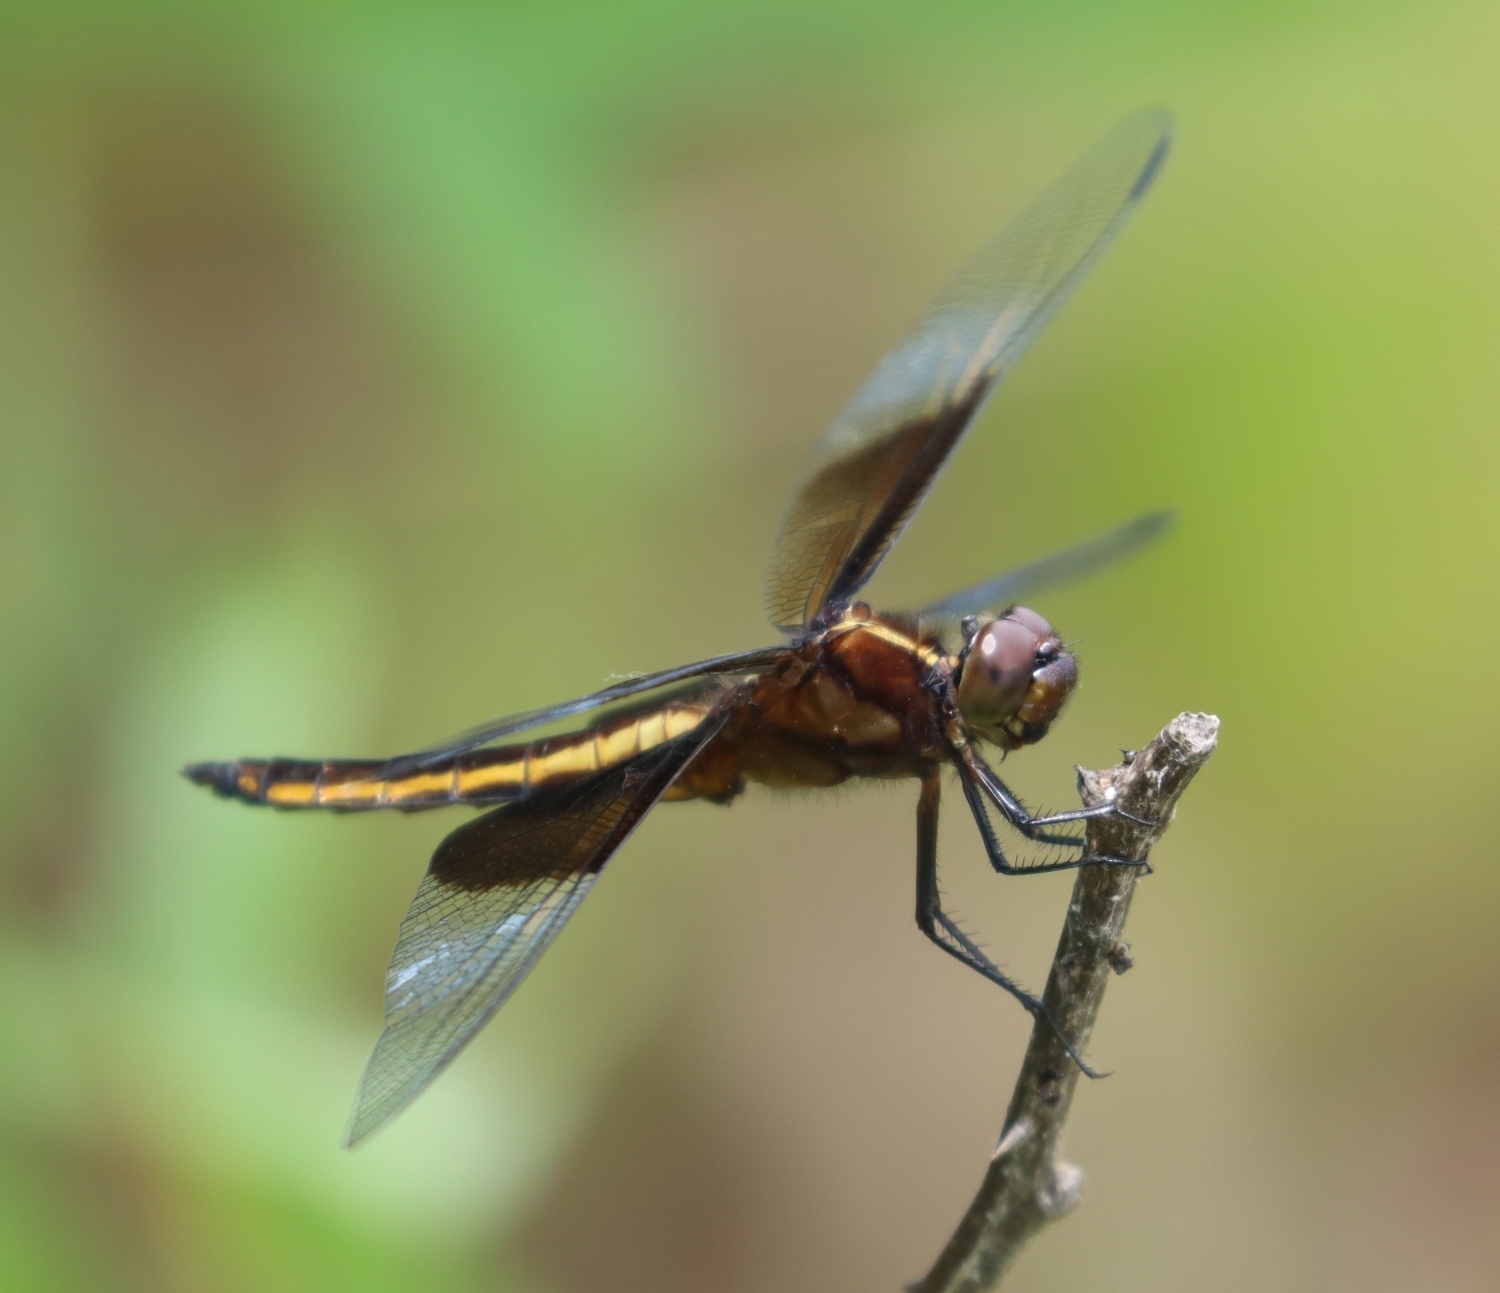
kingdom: Animalia
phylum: Arthropoda
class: Insecta
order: Odonata
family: Libellulidae
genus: Libellula
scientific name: Libellula luctuosa
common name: Widow skimmer
